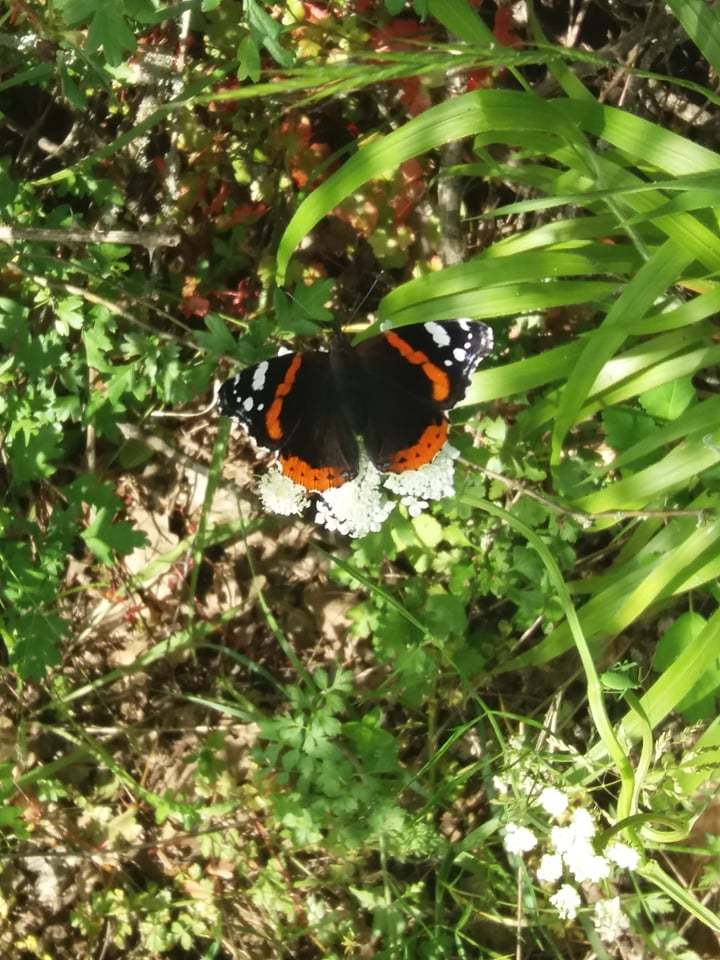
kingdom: Animalia
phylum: Arthropoda
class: Insecta
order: Lepidoptera
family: Nymphalidae
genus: Vanessa
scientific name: Vanessa atalanta
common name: Red admiral
